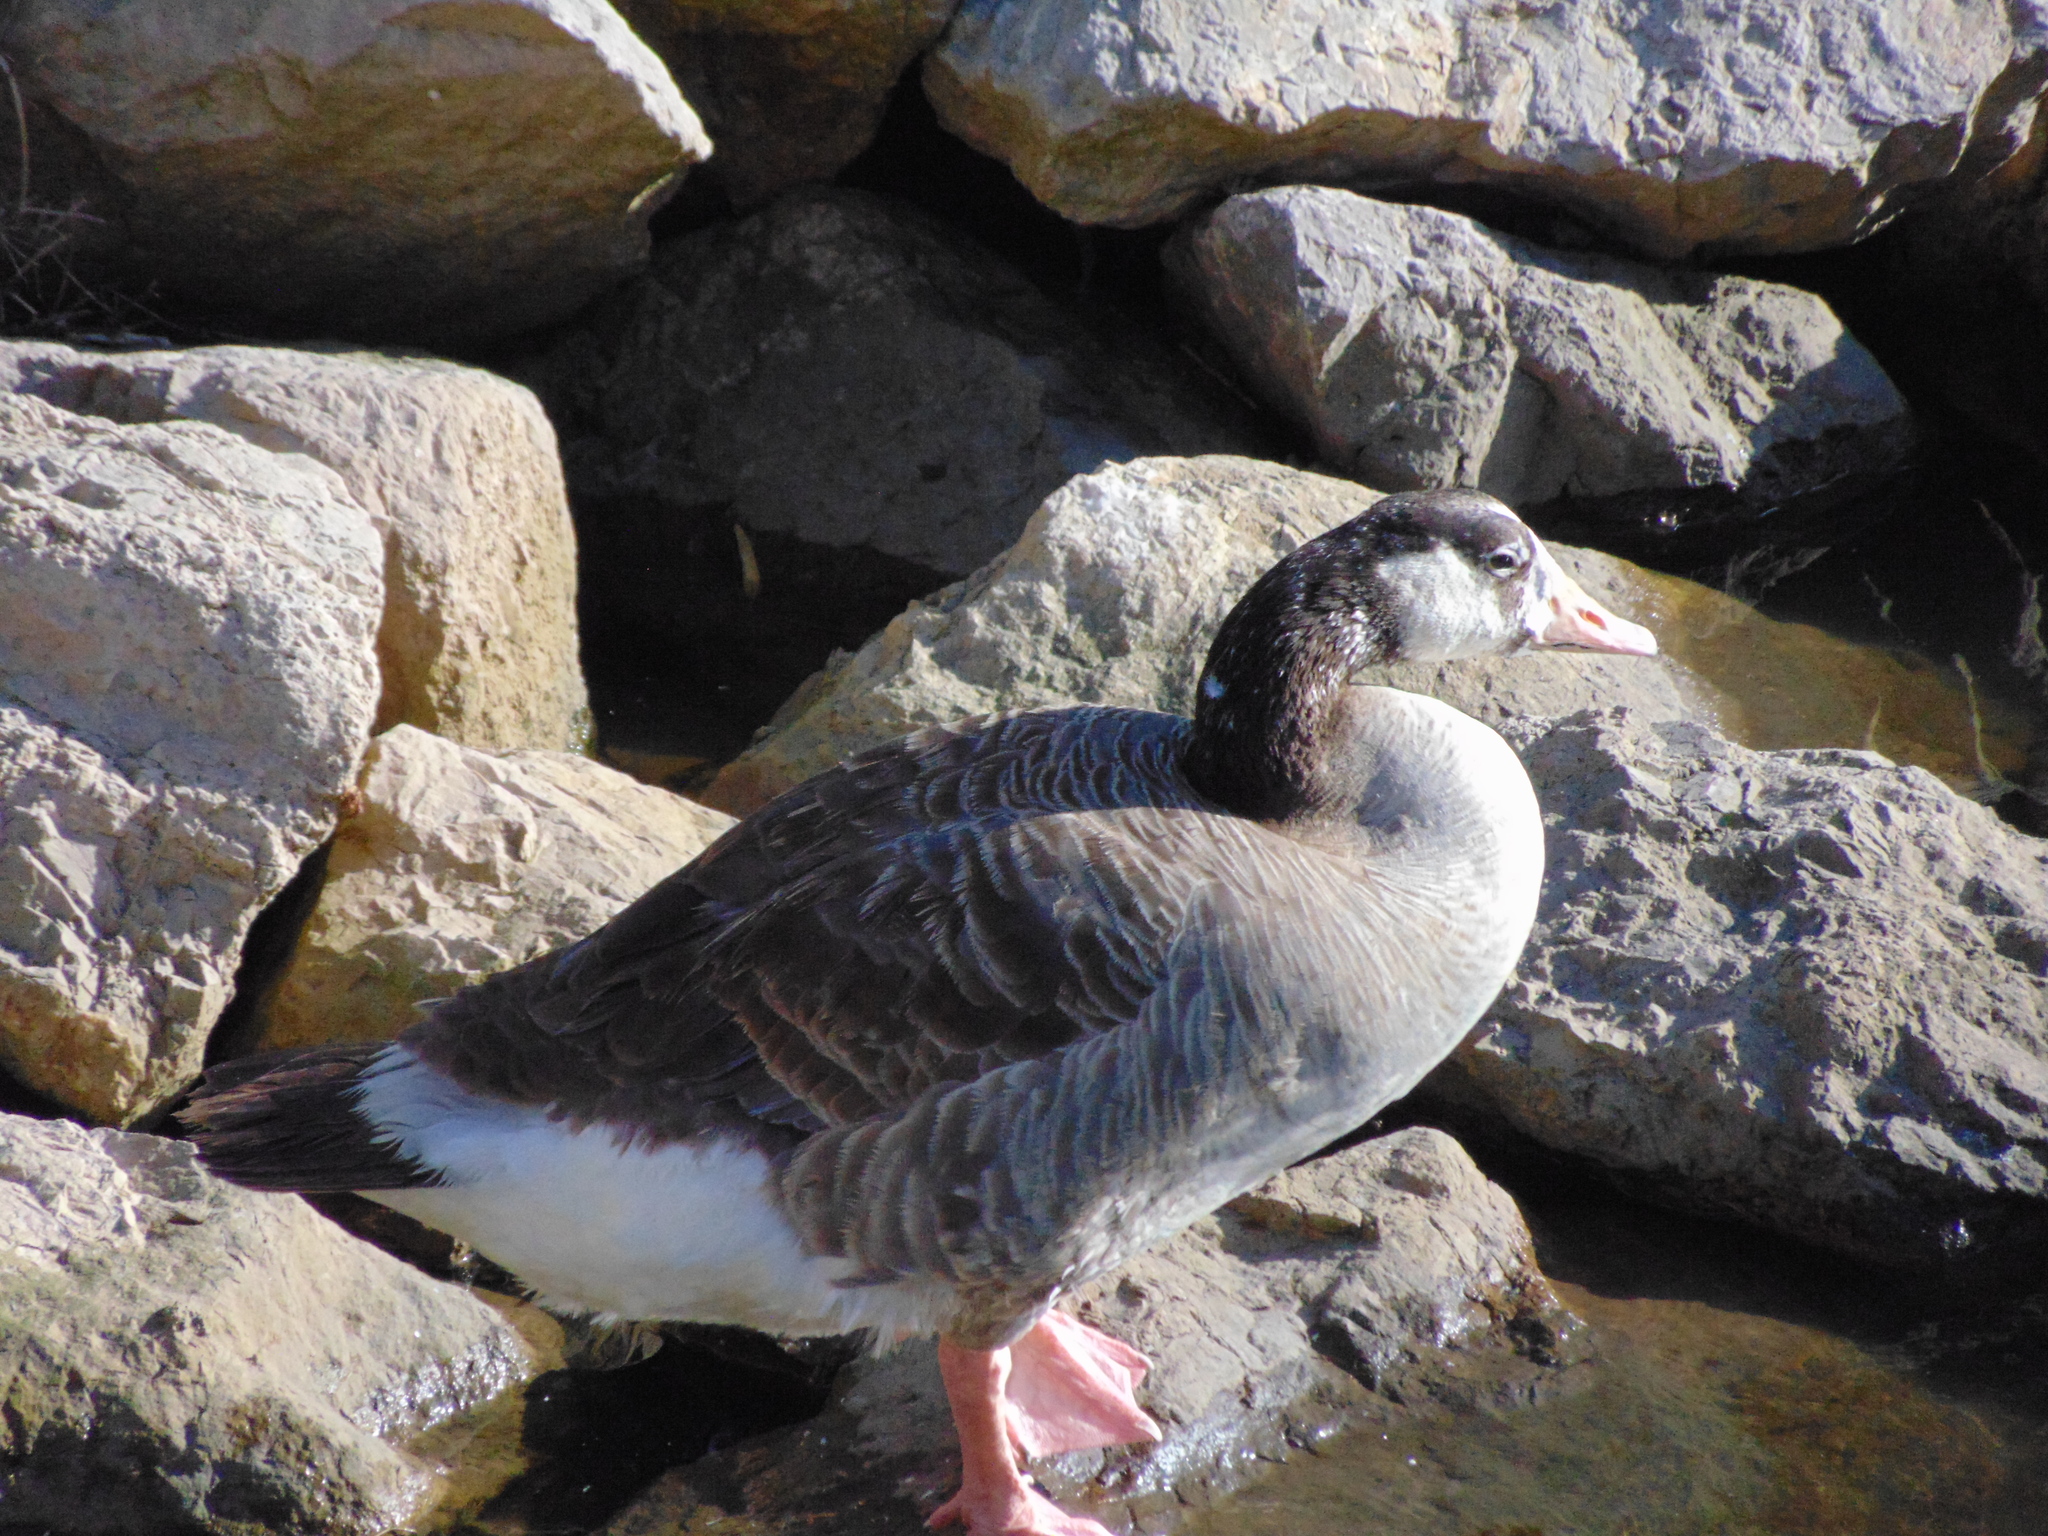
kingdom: Animalia
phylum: Chordata
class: Aves
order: Anseriformes
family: Anatidae
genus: Branta
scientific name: Branta canadensis
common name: Canada goose
